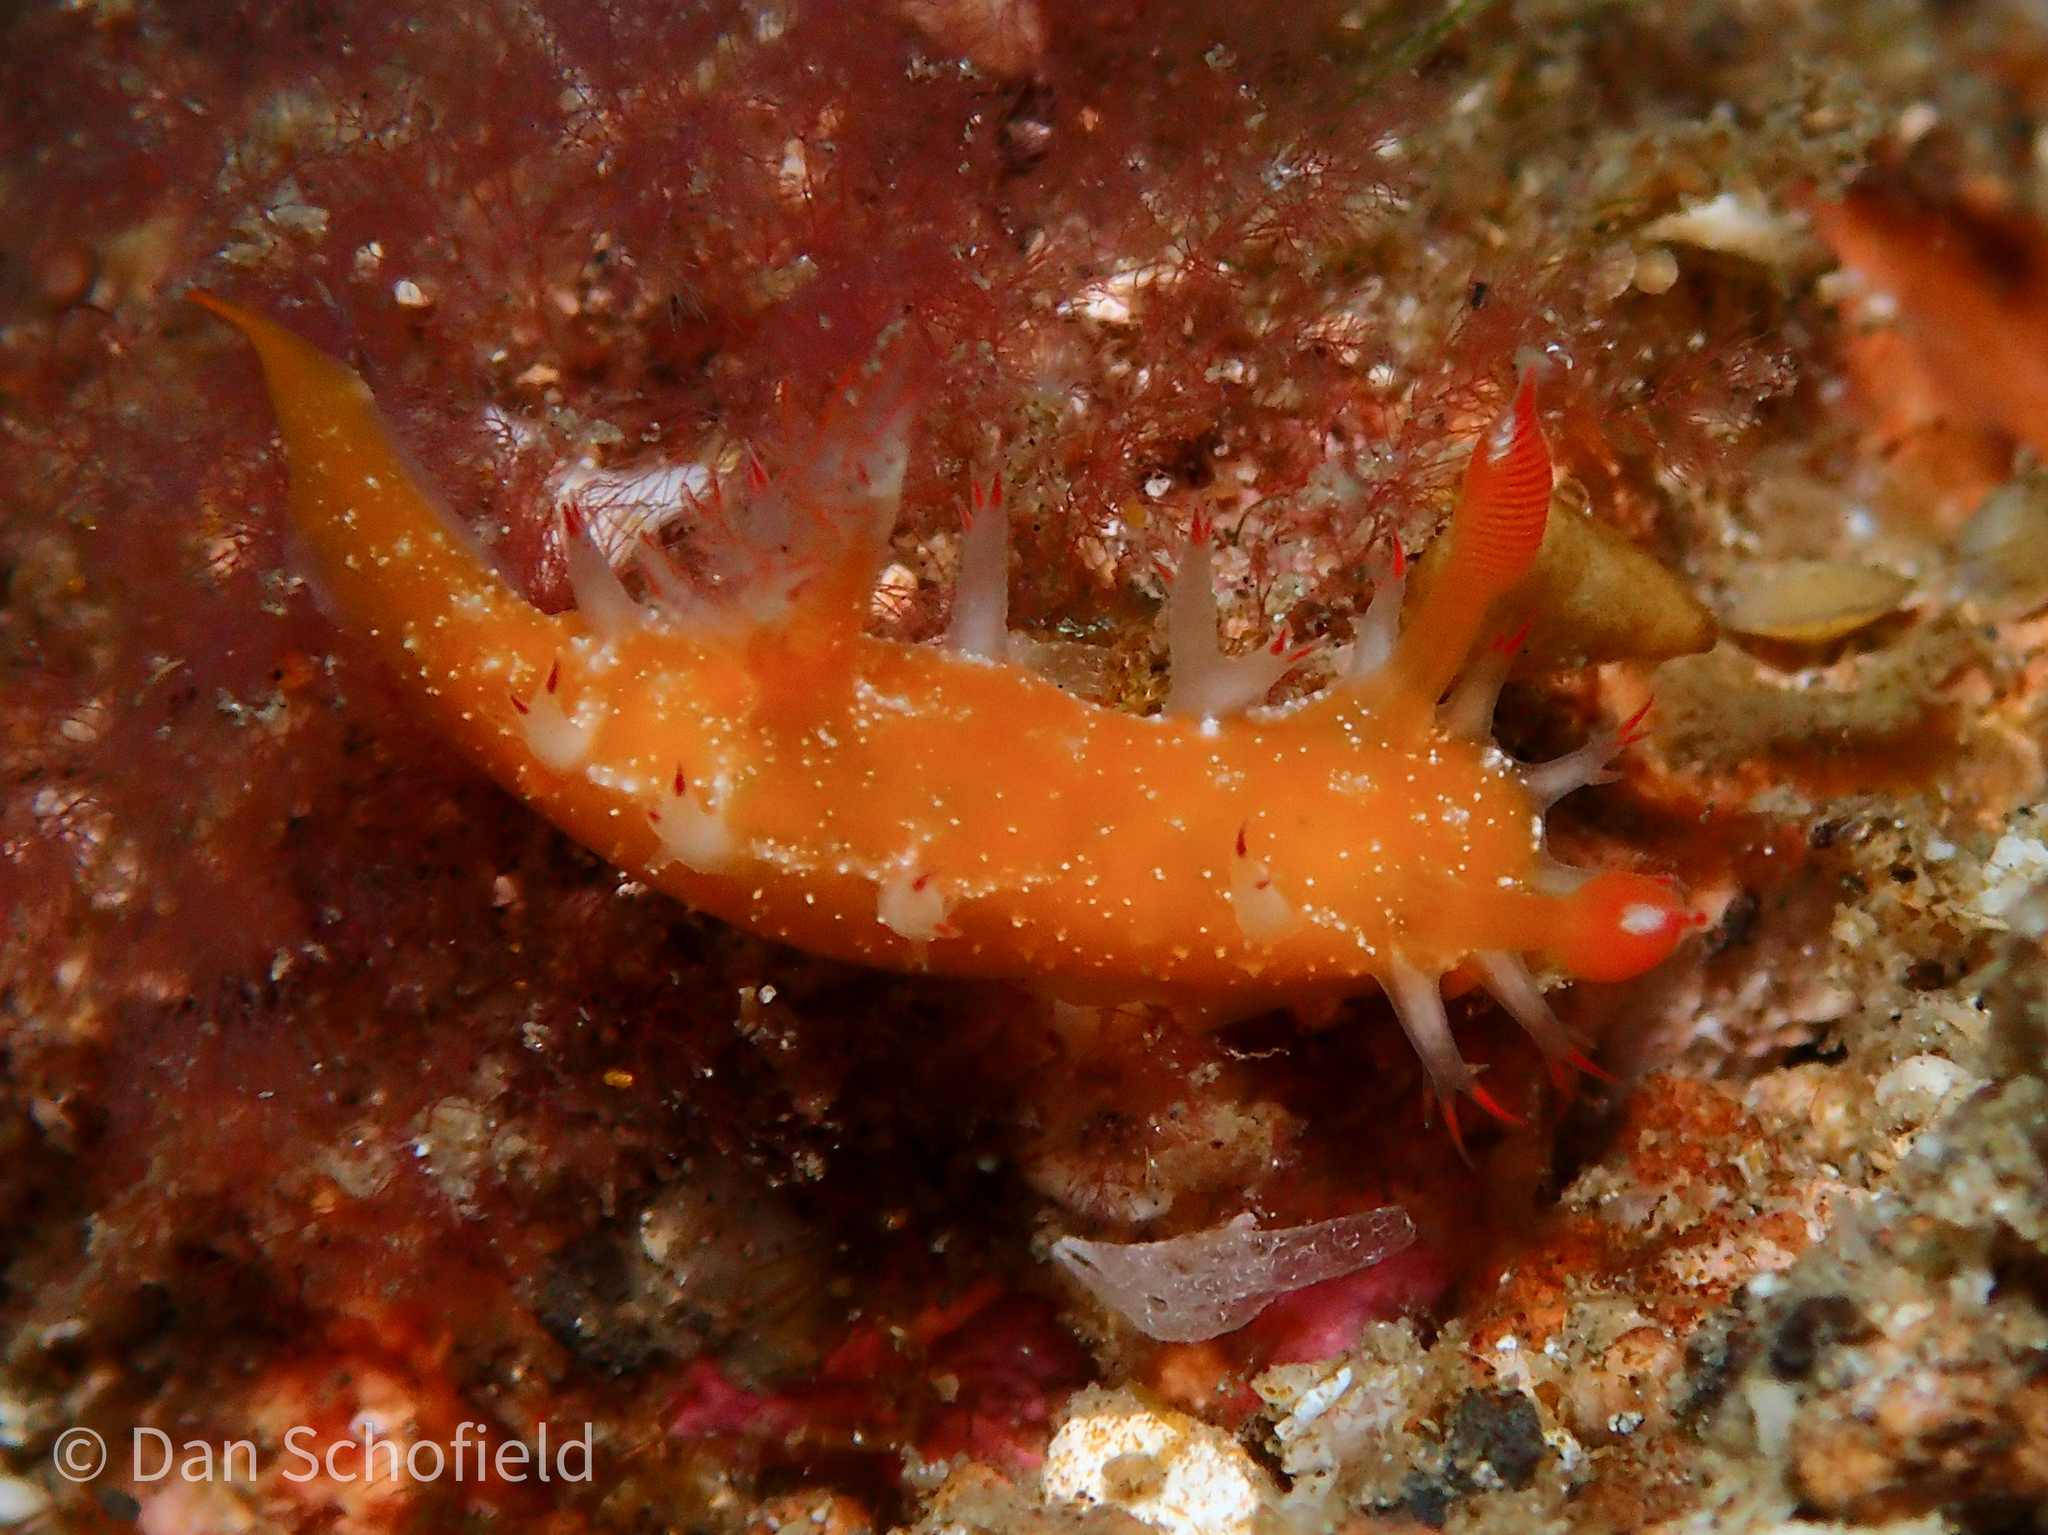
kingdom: Animalia
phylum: Mollusca
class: Gastropoda
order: Nudibranchia
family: Polyceridae
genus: Kaloplocamus
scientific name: Kaloplocamus acutus
